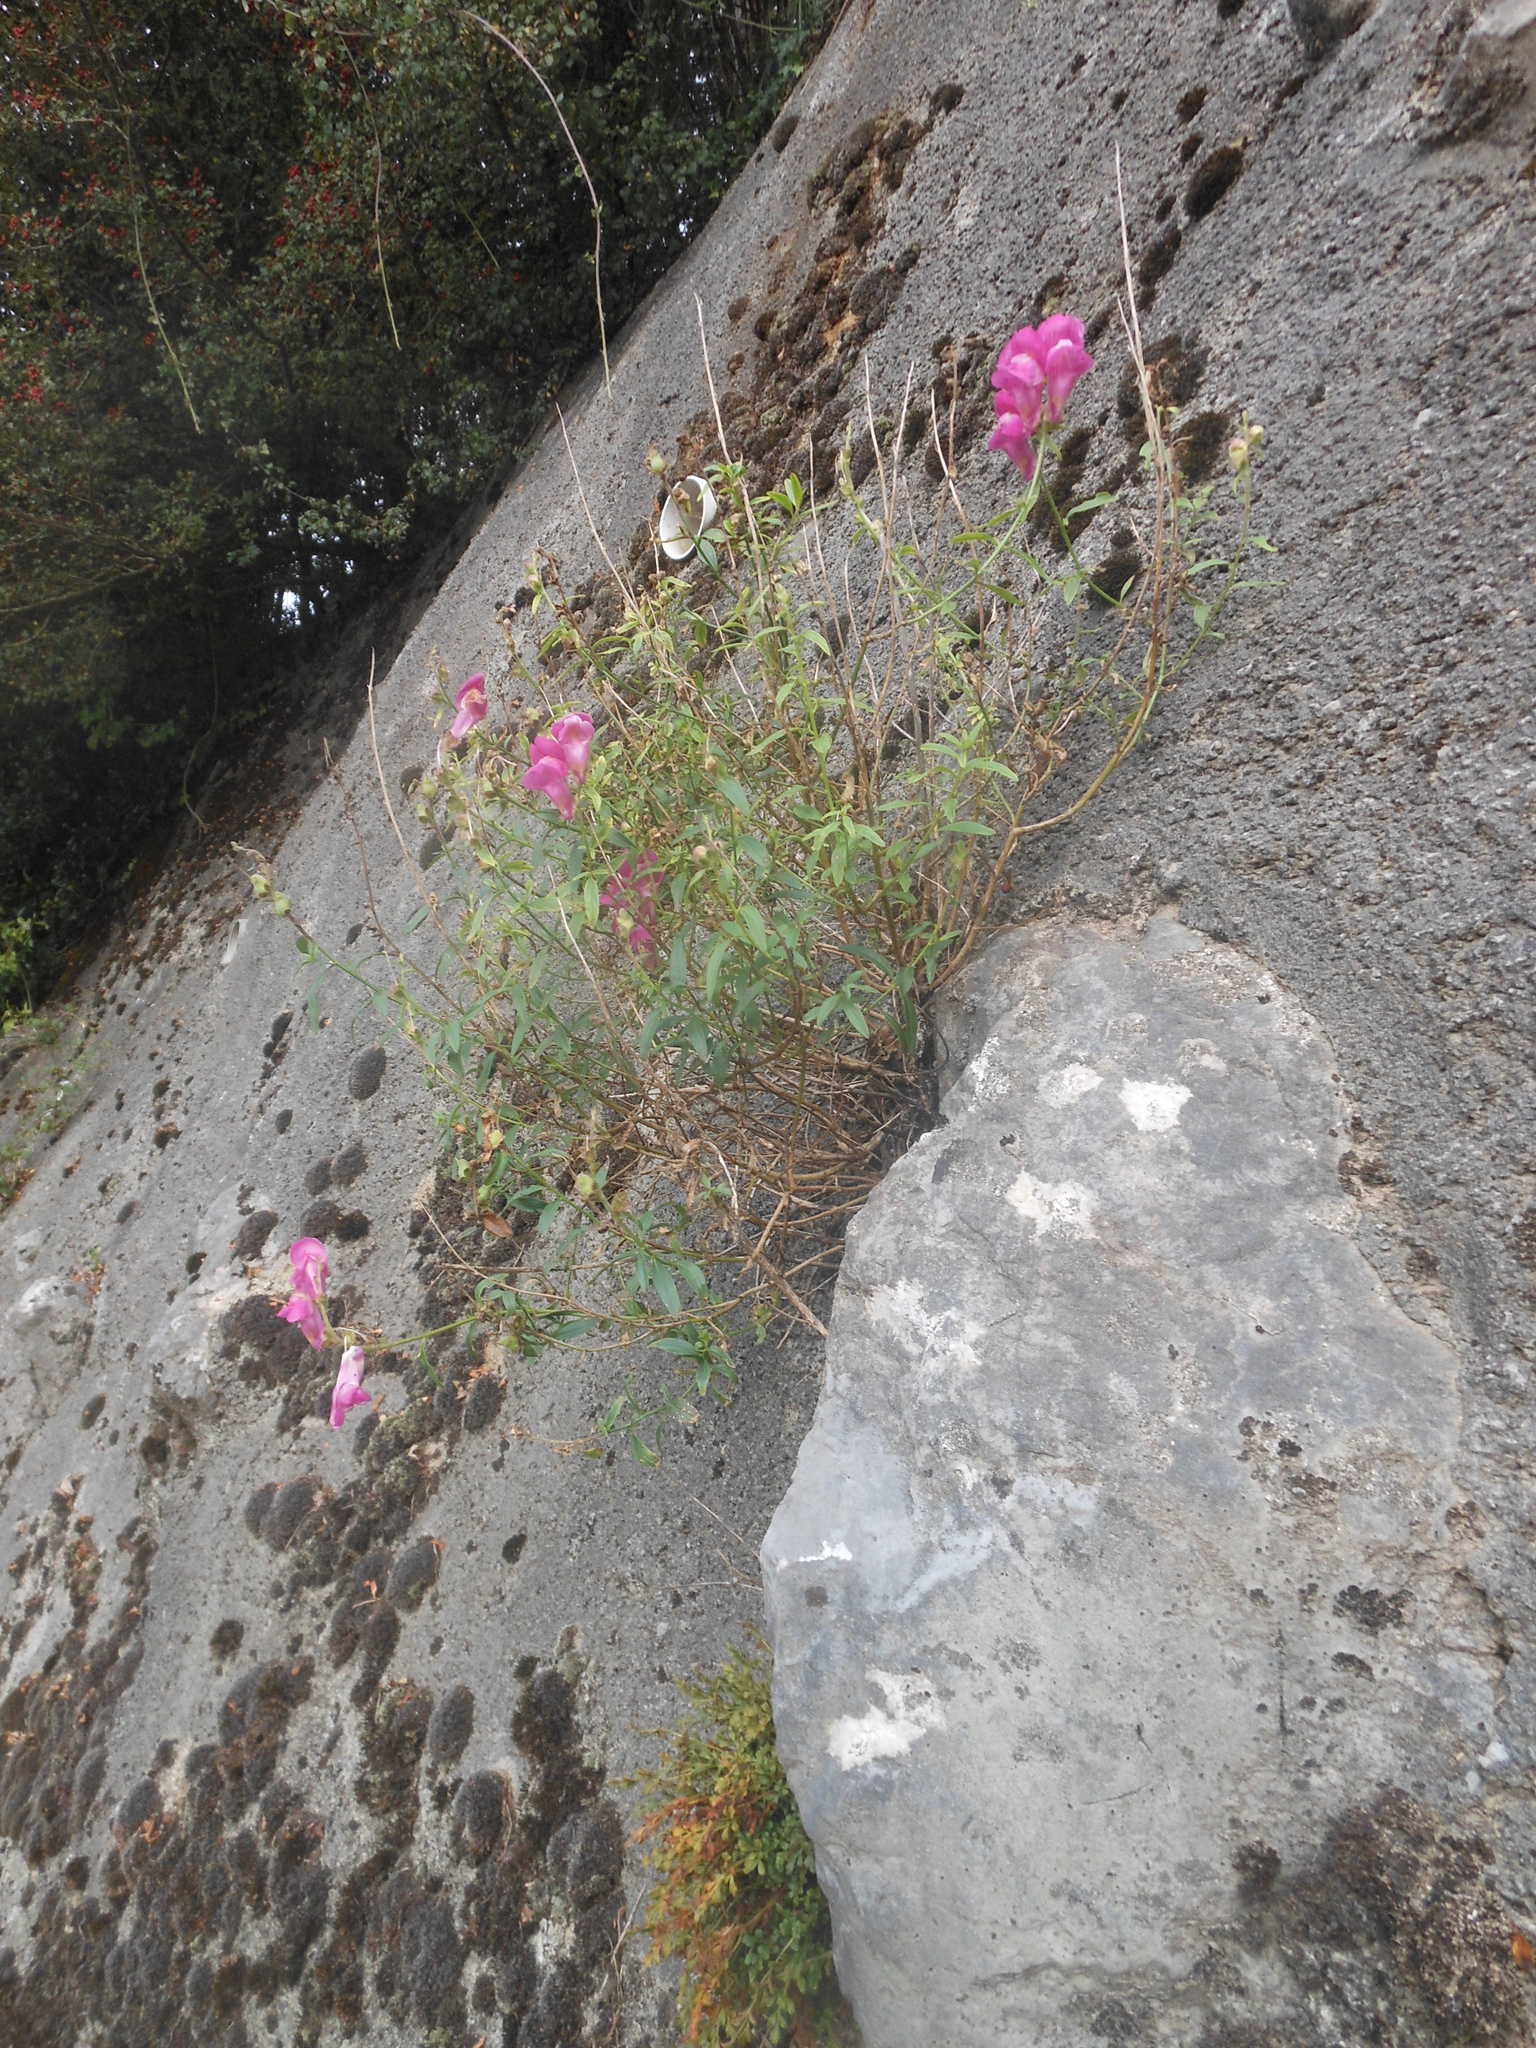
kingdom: Plantae
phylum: Tracheophyta
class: Magnoliopsida
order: Lamiales
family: Plantaginaceae
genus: Antirrhinum
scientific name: Antirrhinum majus
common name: Snapdragon
